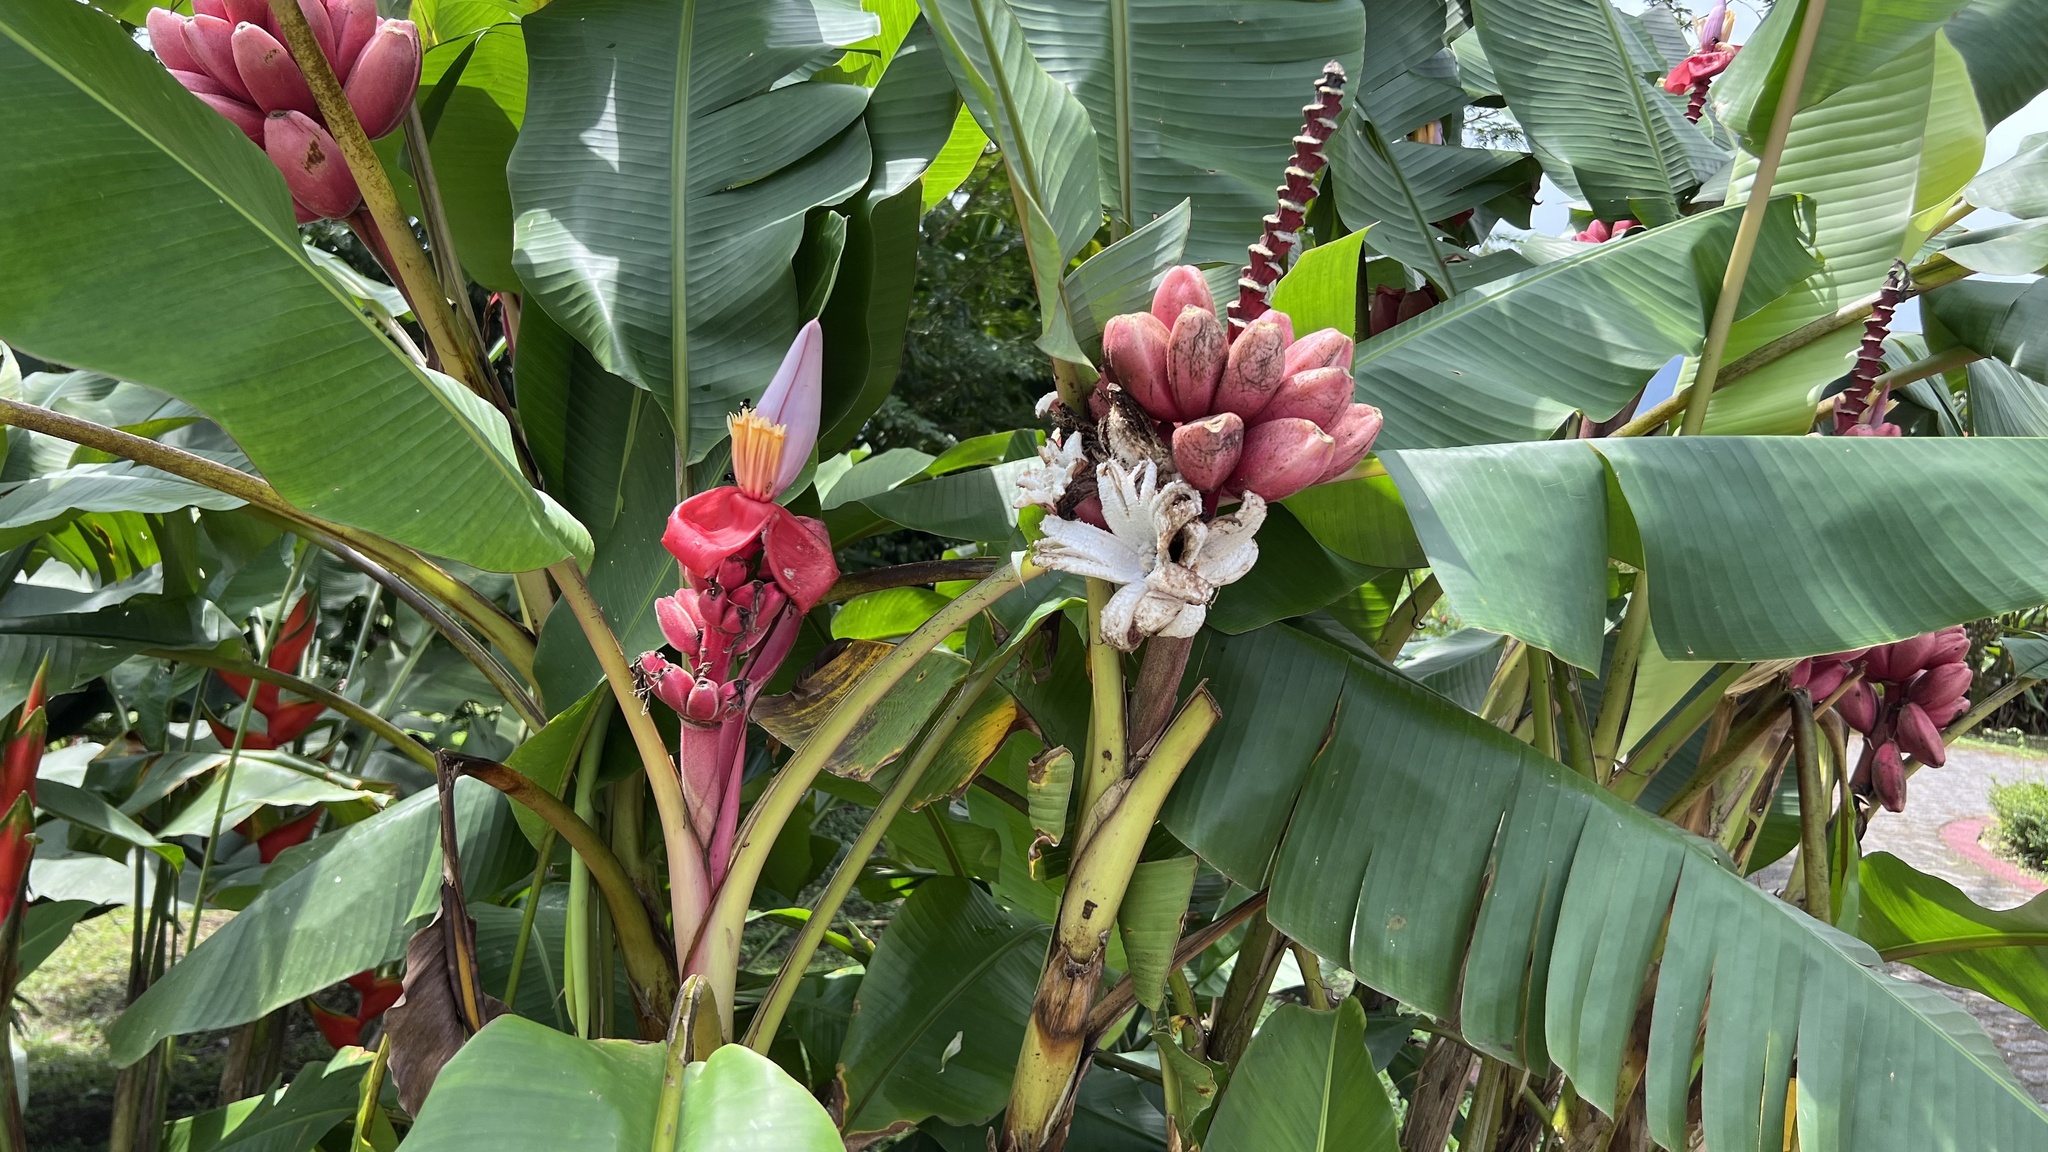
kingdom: Plantae
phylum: Tracheophyta
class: Liliopsida
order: Zingiberales
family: Musaceae
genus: Musa
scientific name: Musa velutina
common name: Pink velvet banana
